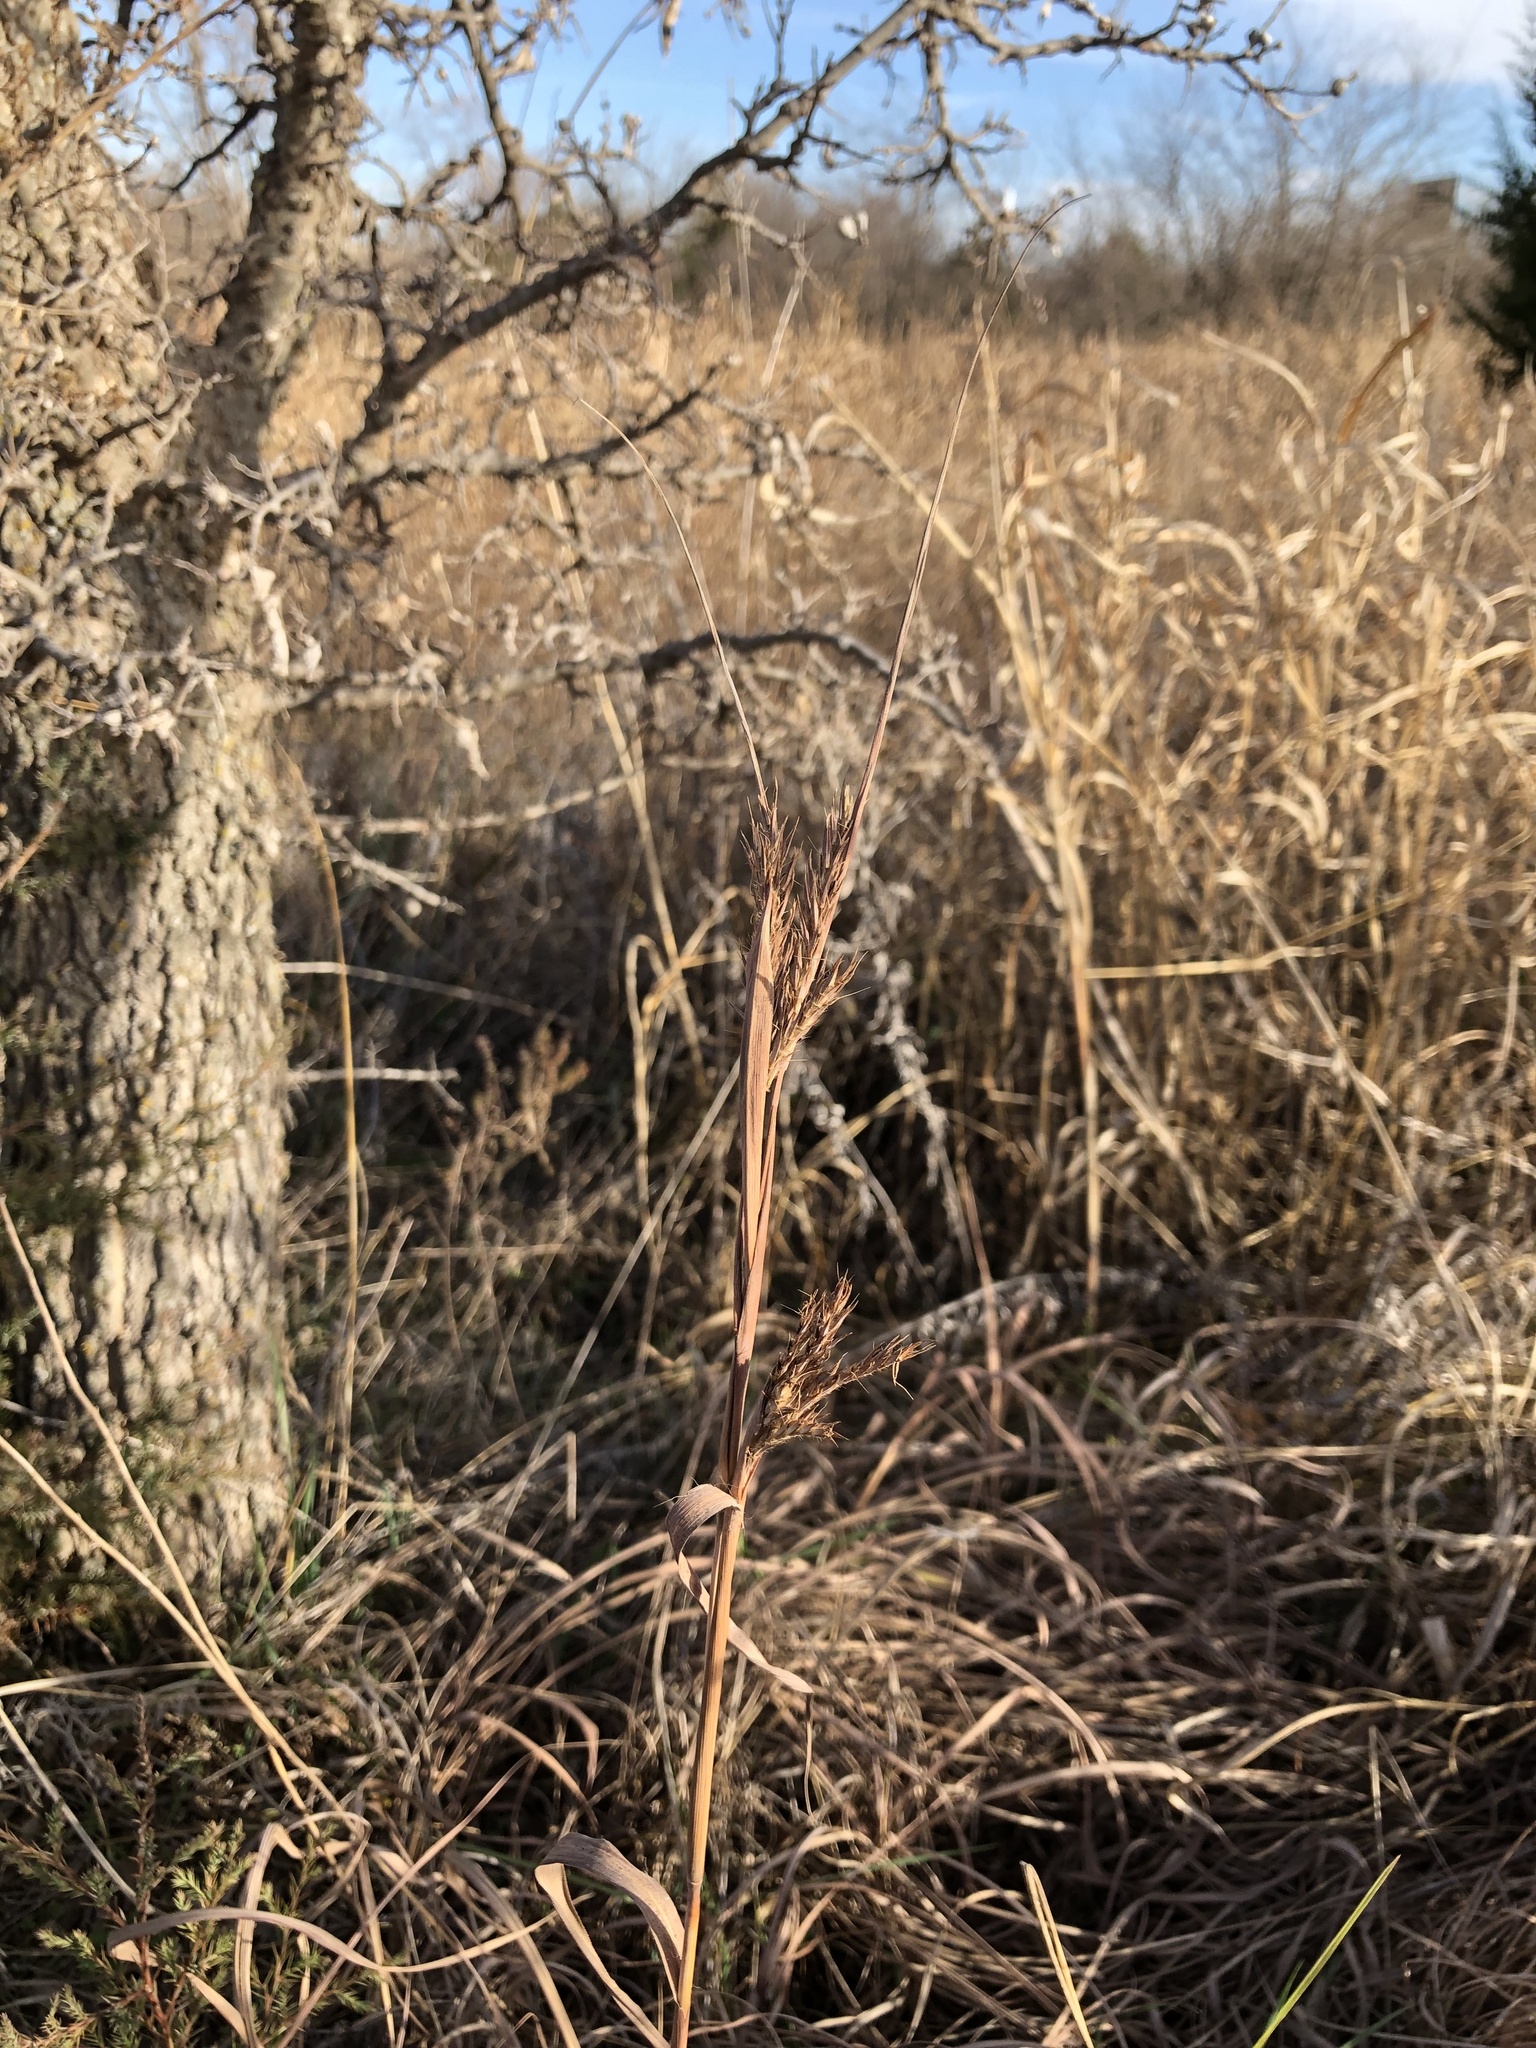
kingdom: Plantae
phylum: Tracheophyta
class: Liliopsida
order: Poales
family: Poaceae
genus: Andropogon
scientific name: Andropogon gerardi
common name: Big bluestem
